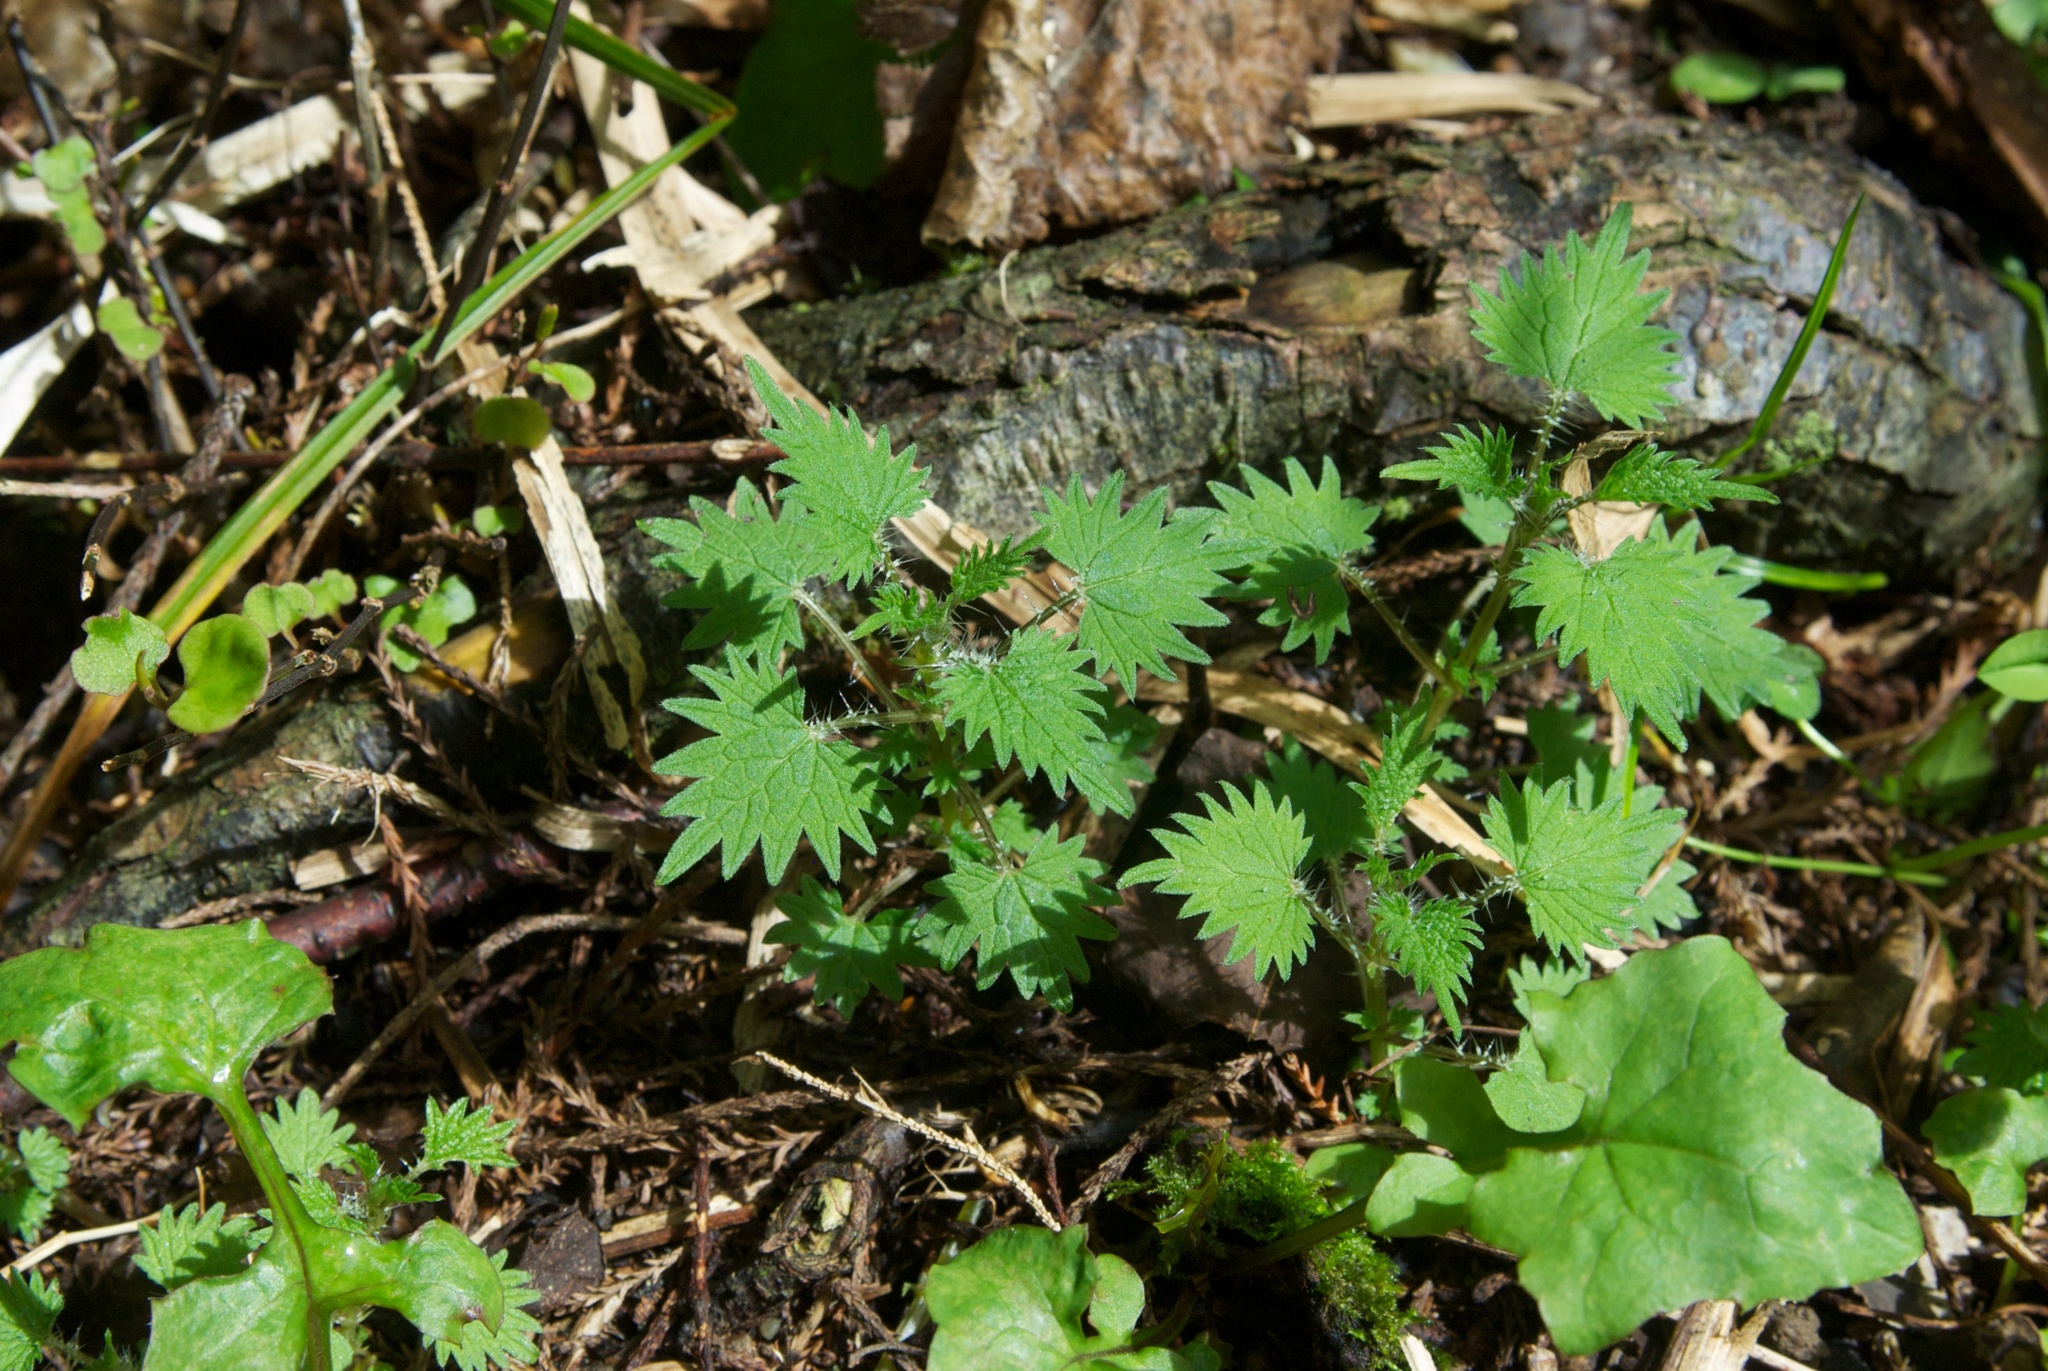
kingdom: Plantae
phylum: Tracheophyta
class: Magnoliopsida
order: Rosales
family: Urticaceae
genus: Urtica
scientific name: Urtica sykesii
